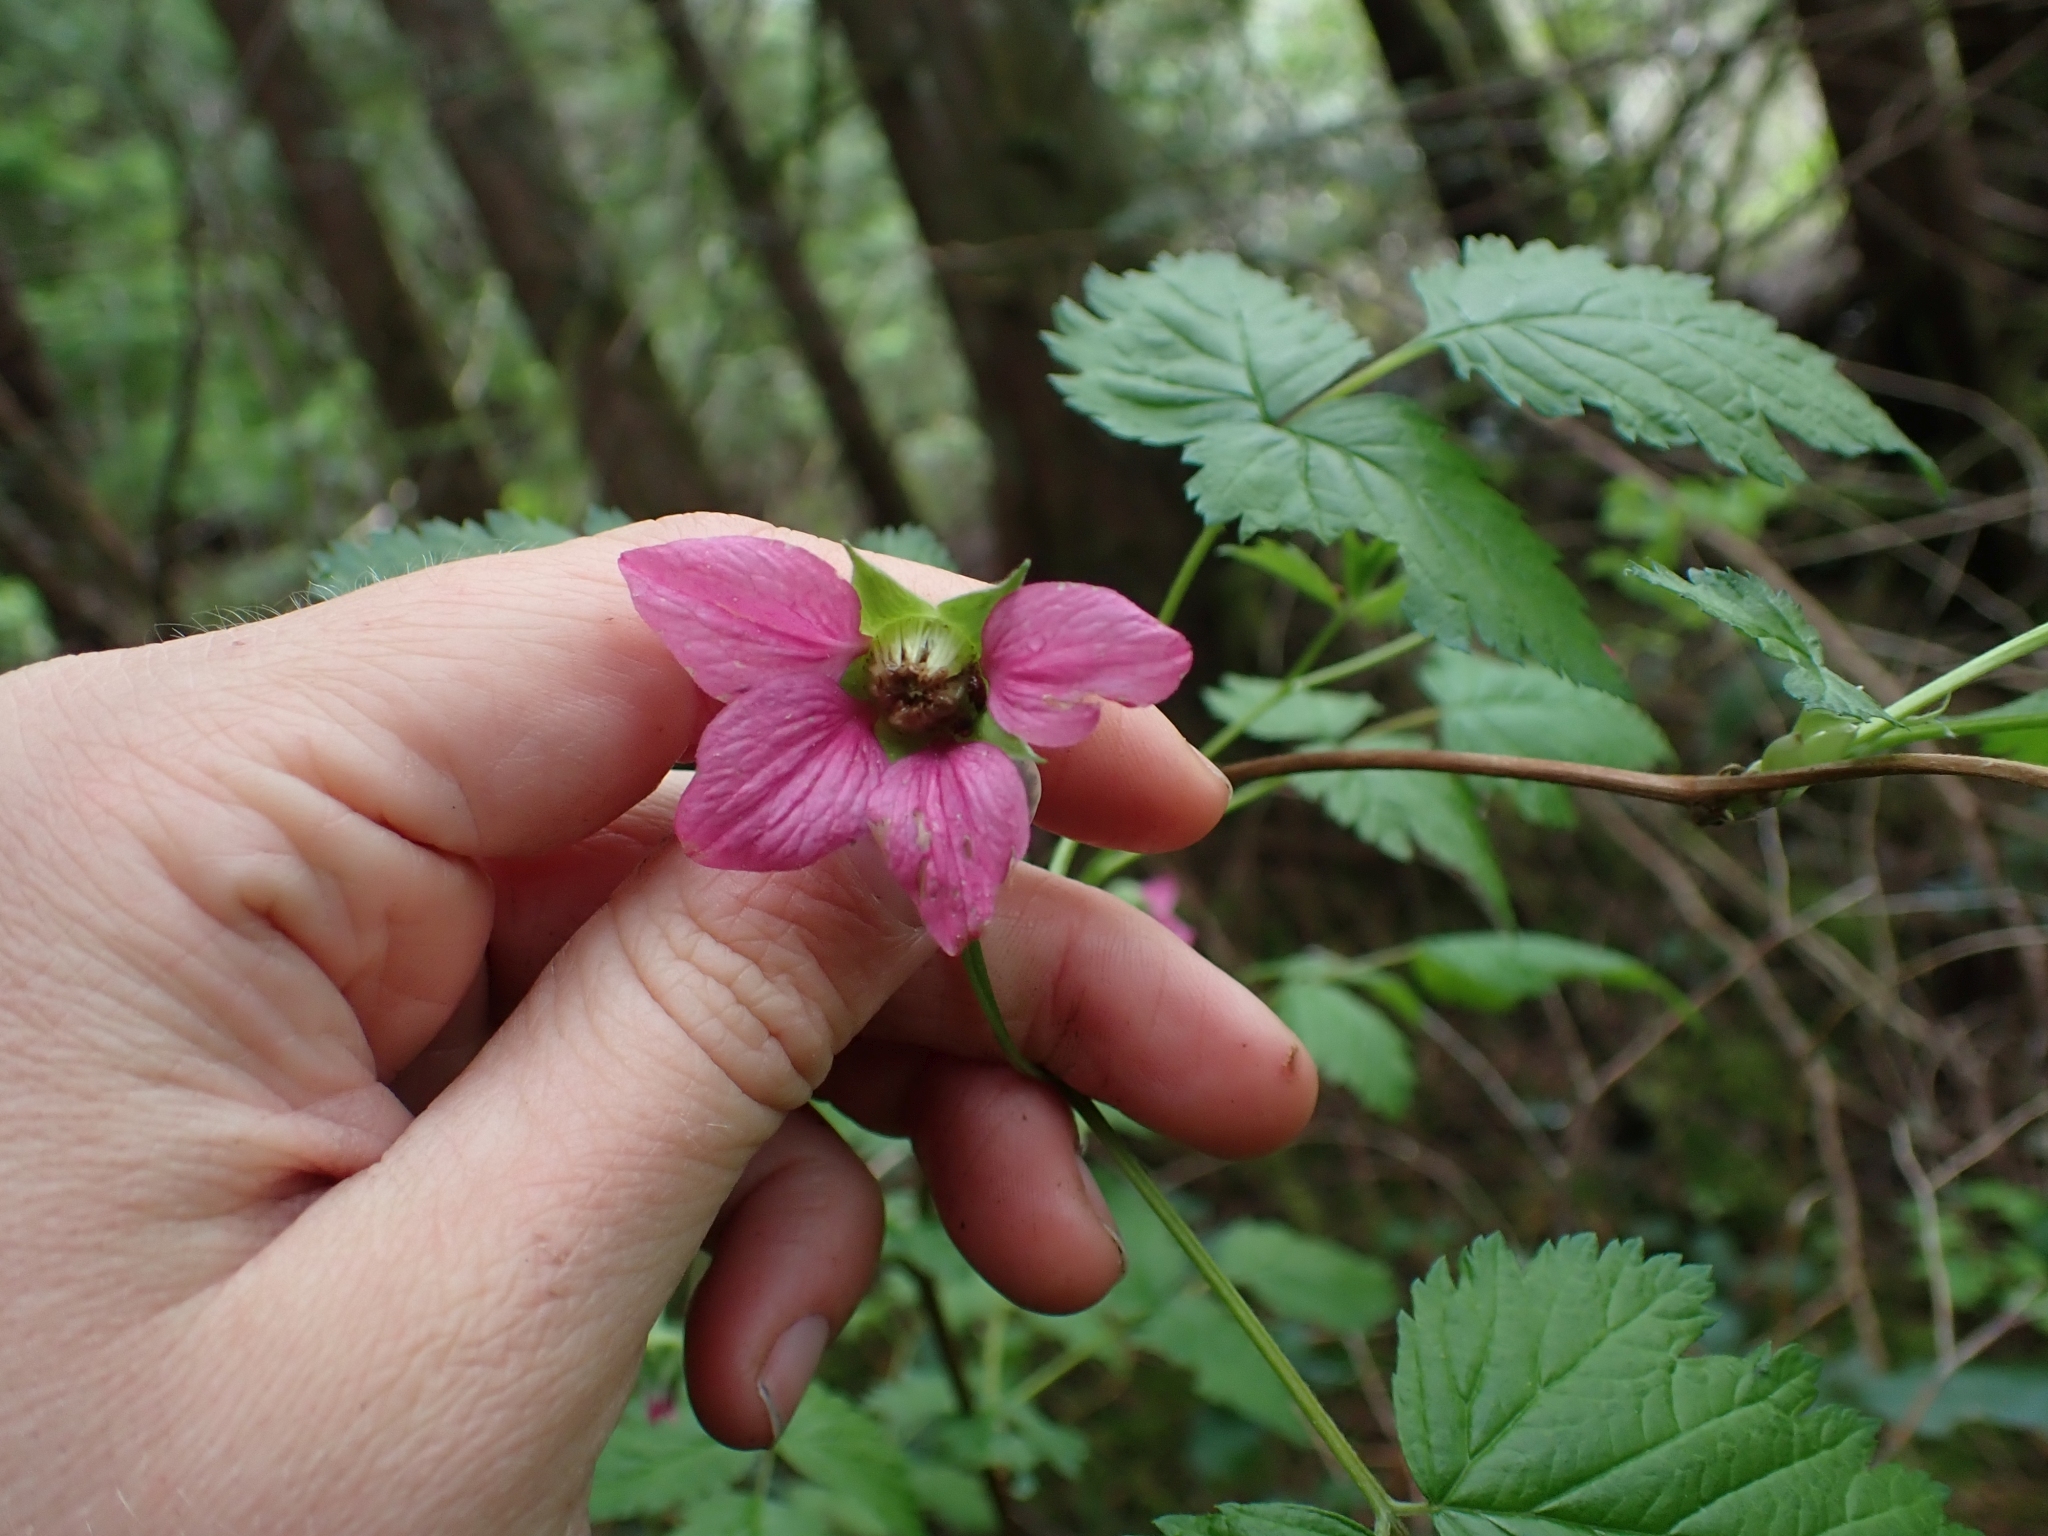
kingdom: Plantae
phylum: Tracheophyta
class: Magnoliopsida
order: Rosales
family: Rosaceae
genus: Rubus
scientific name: Rubus spectabilis
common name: Salmonberry
